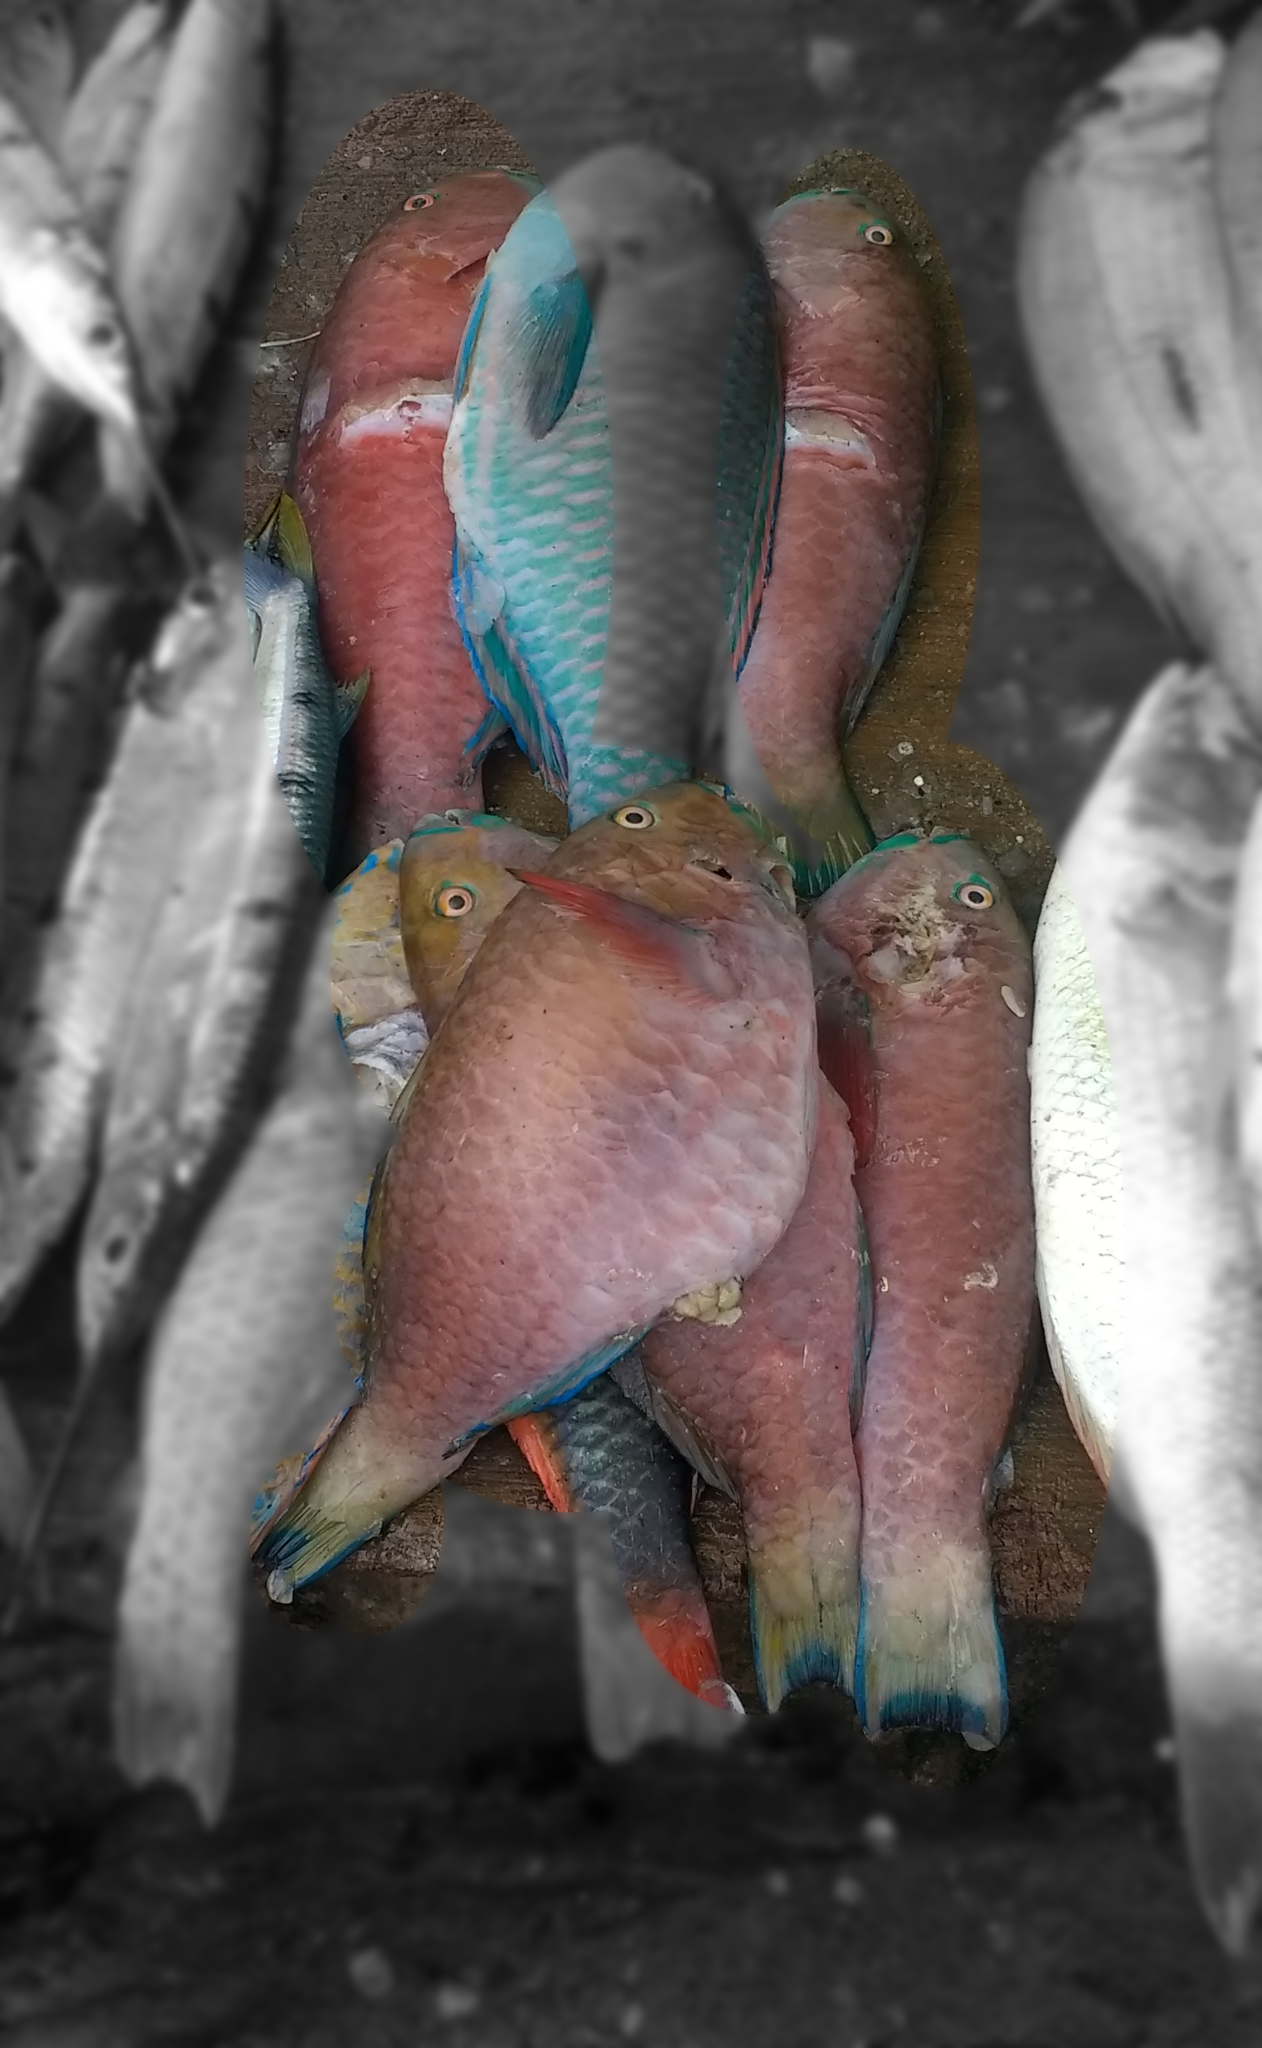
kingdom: Animalia
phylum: Chordata
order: Perciformes
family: Scaridae
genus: Chlorurus
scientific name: Chlorurus strongylocephalus
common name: Steephead parrotfish
